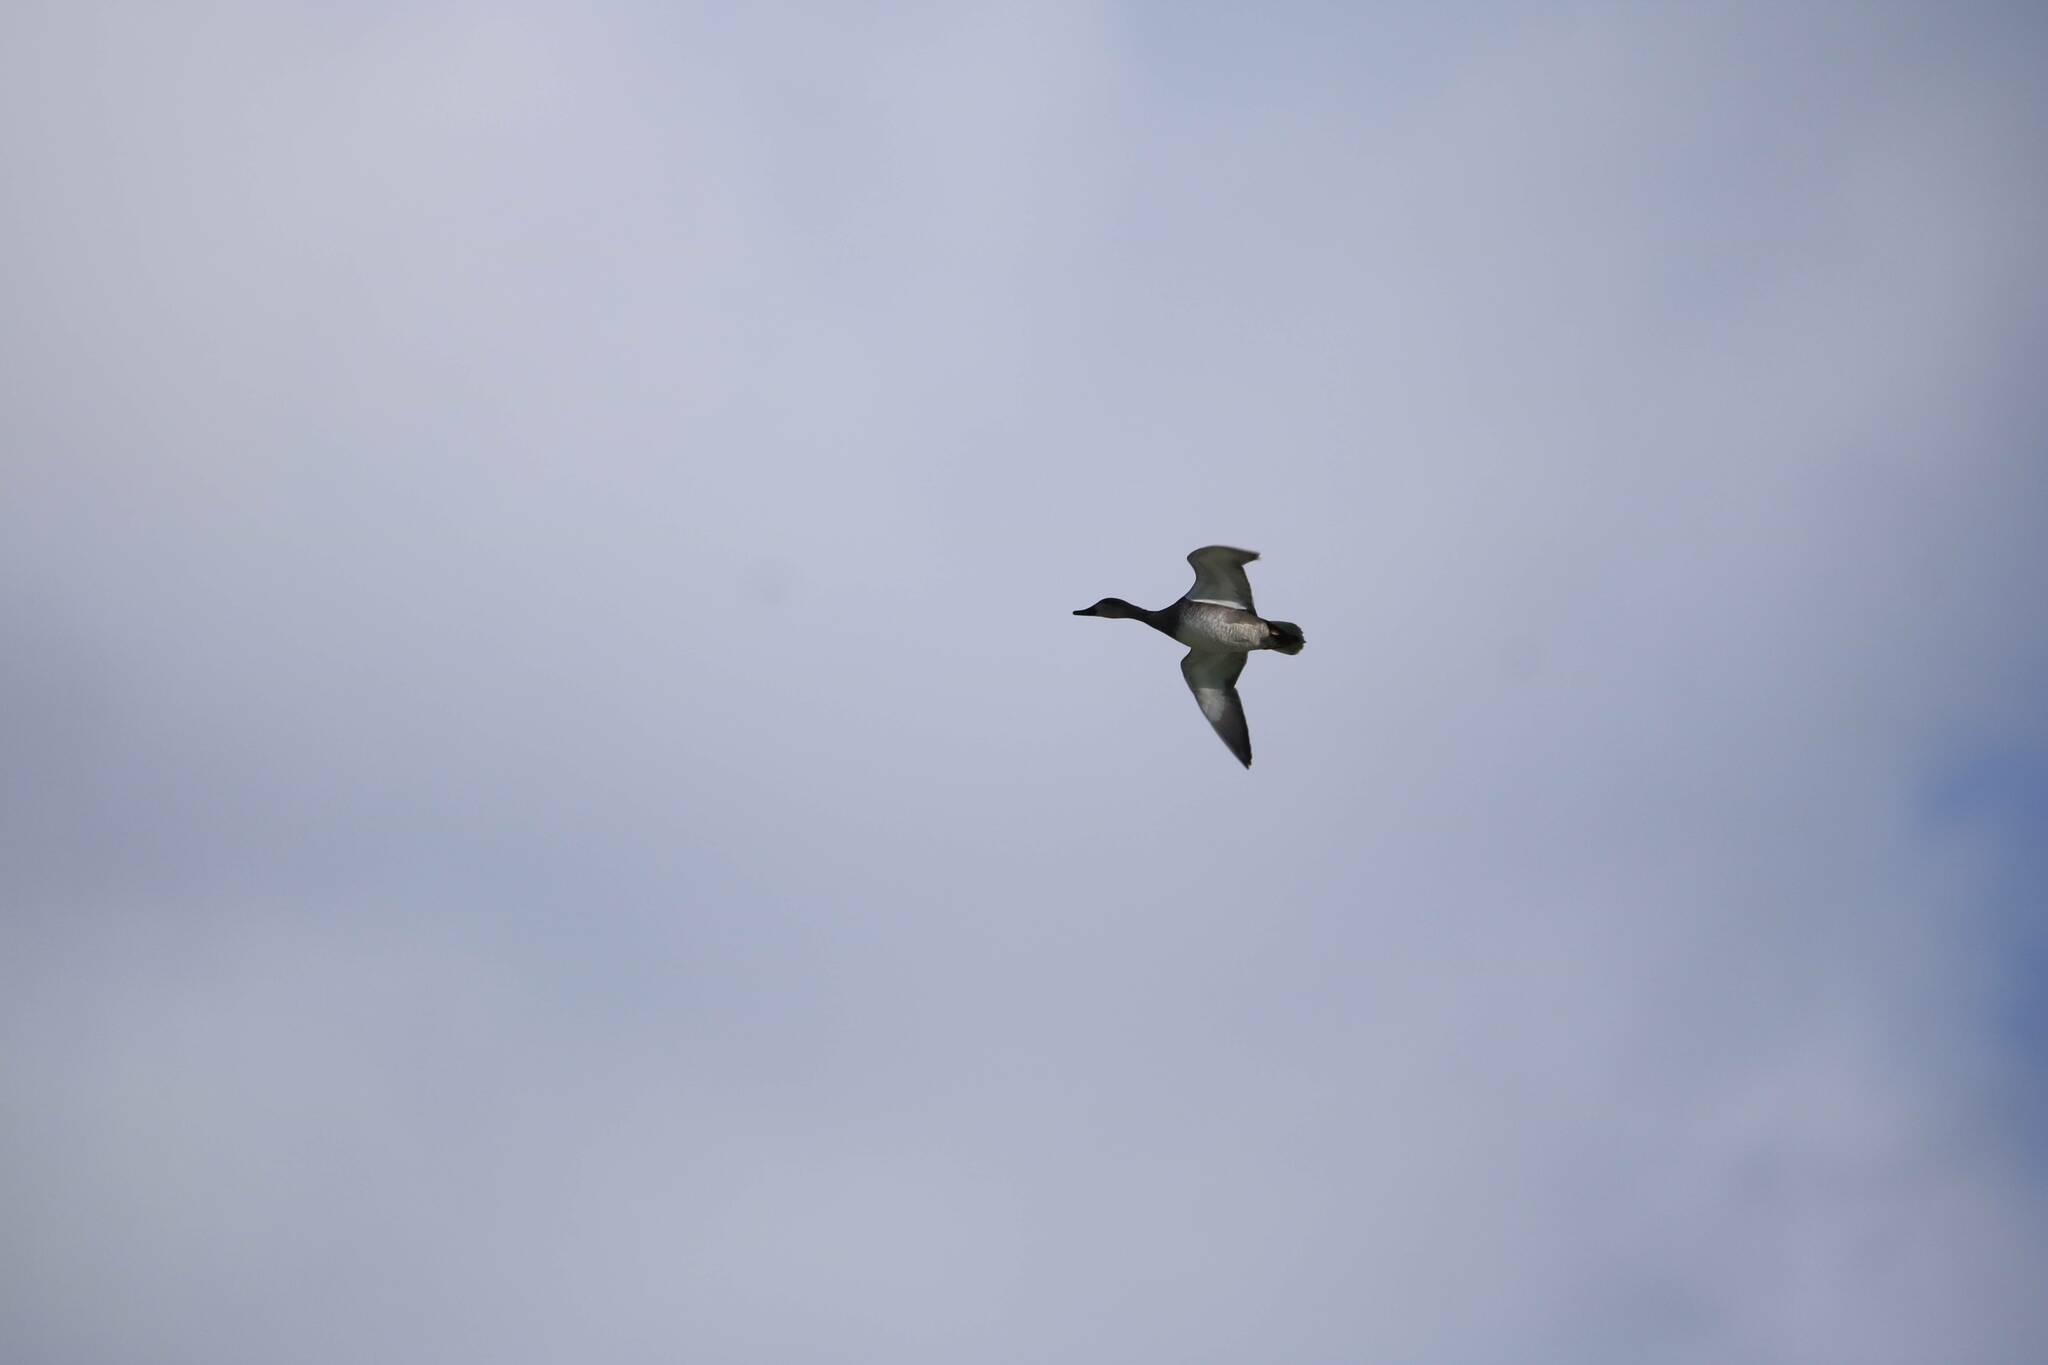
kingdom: Animalia
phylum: Chordata
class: Aves
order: Anseriformes
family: Anatidae
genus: Mareca
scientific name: Mareca penelope
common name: Eurasian wigeon
